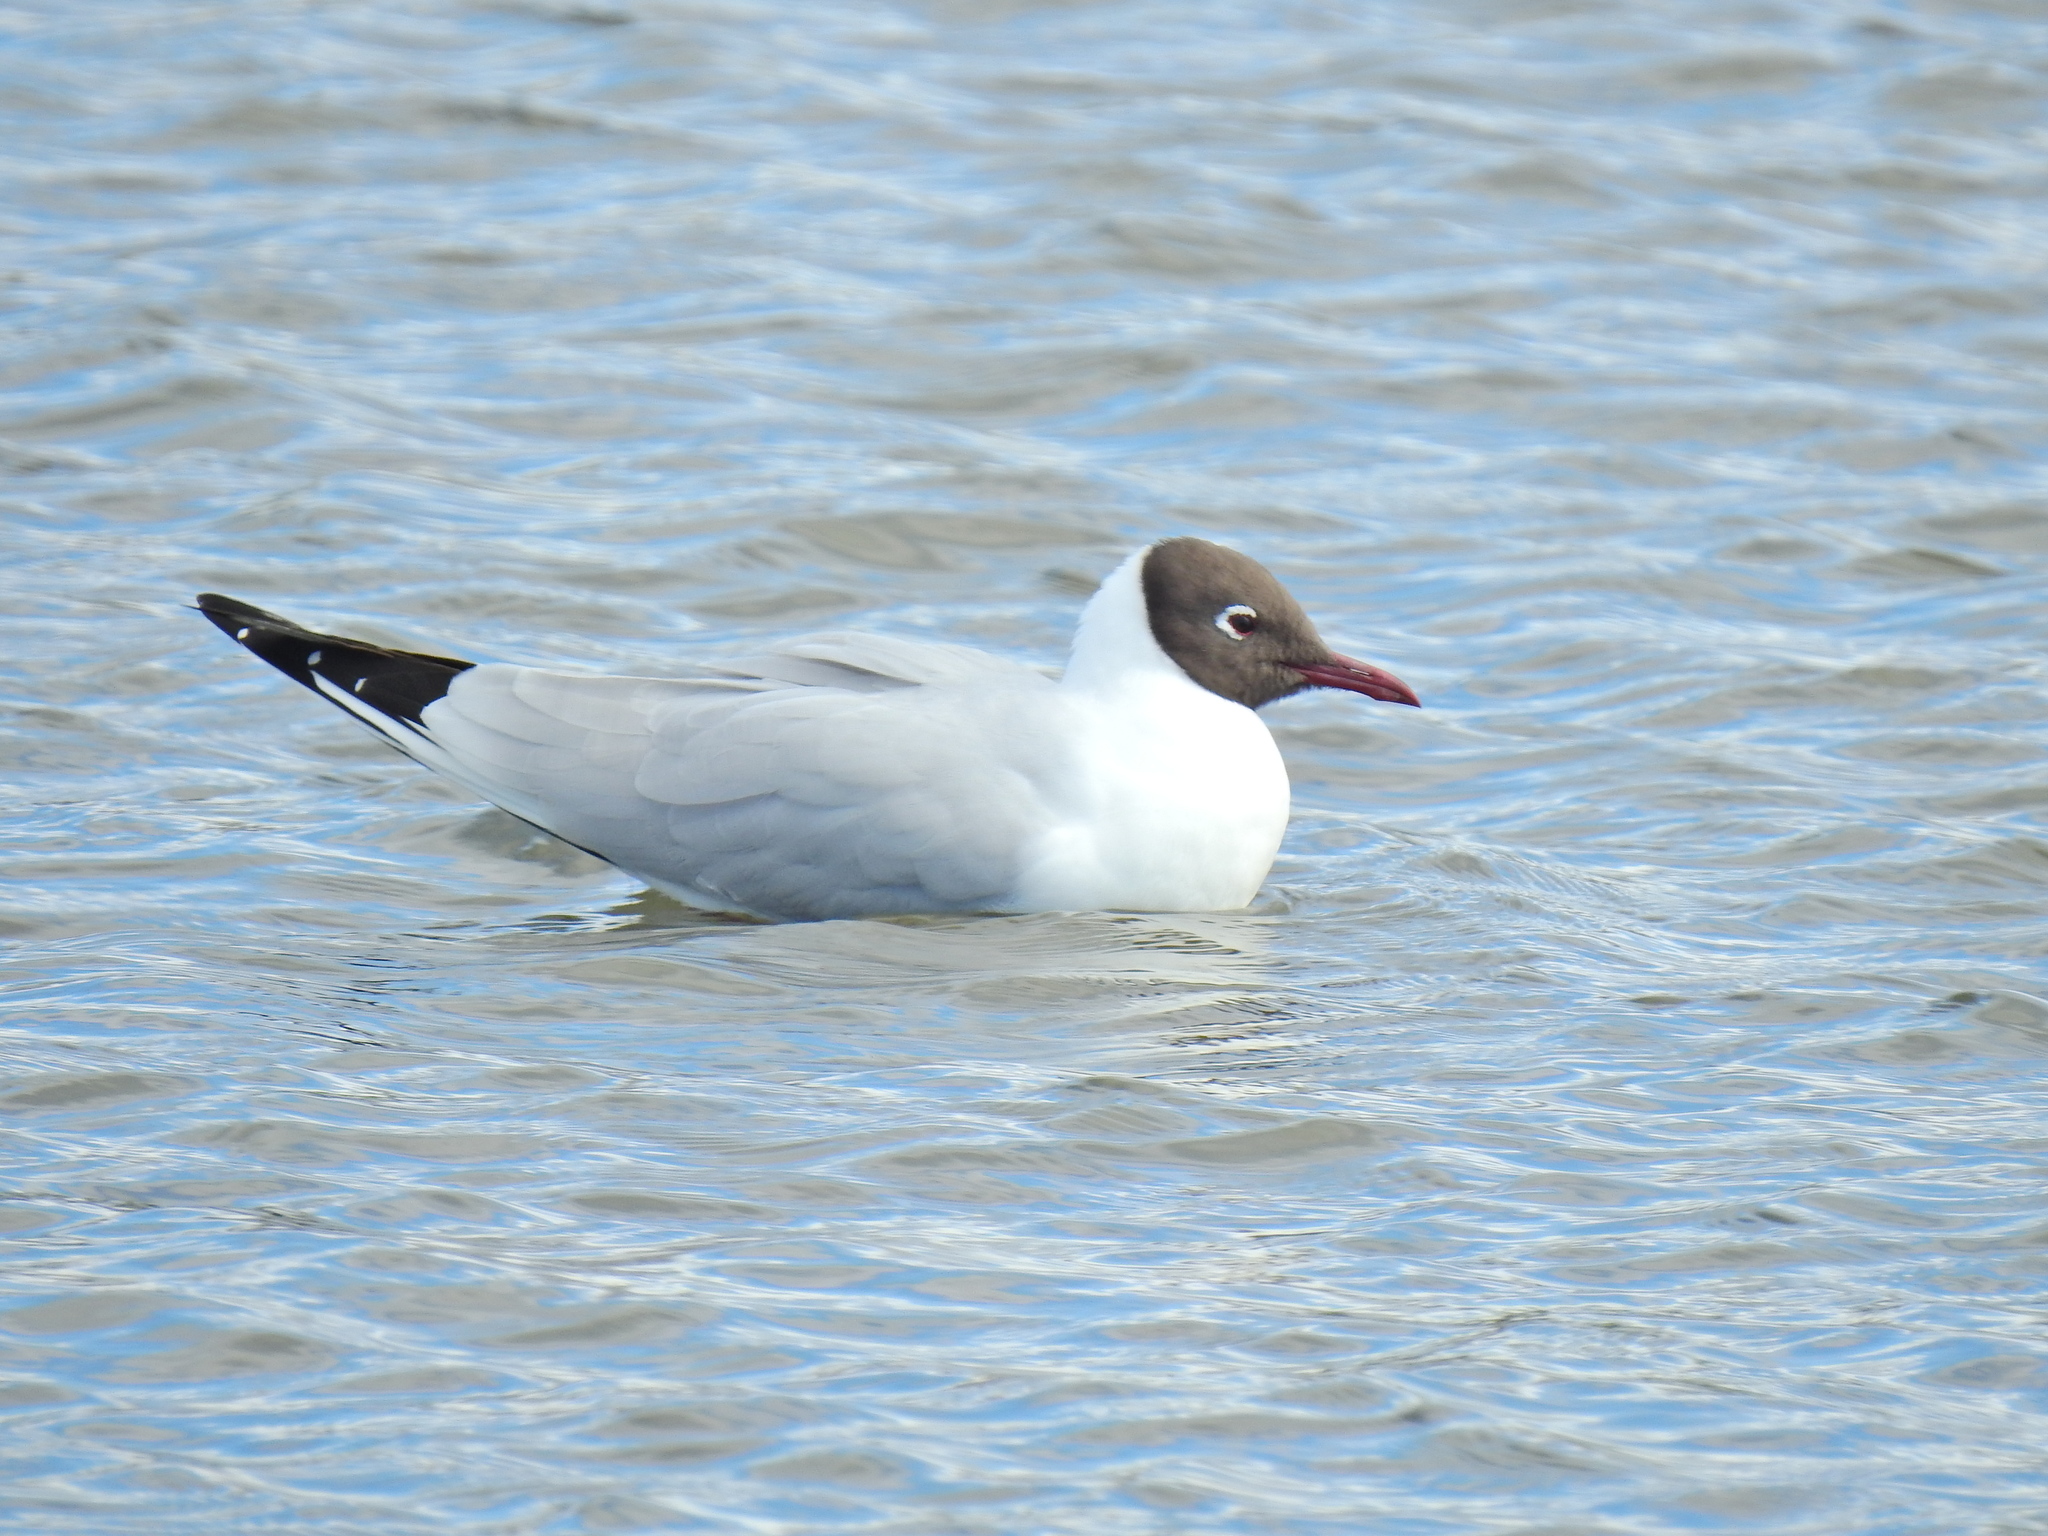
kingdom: Animalia
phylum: Chordata
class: Aves
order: Charadriiformes
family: Laridae
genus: Chroicocephalus
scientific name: Chroicocephalus ridibundus
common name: Black-headed gull
